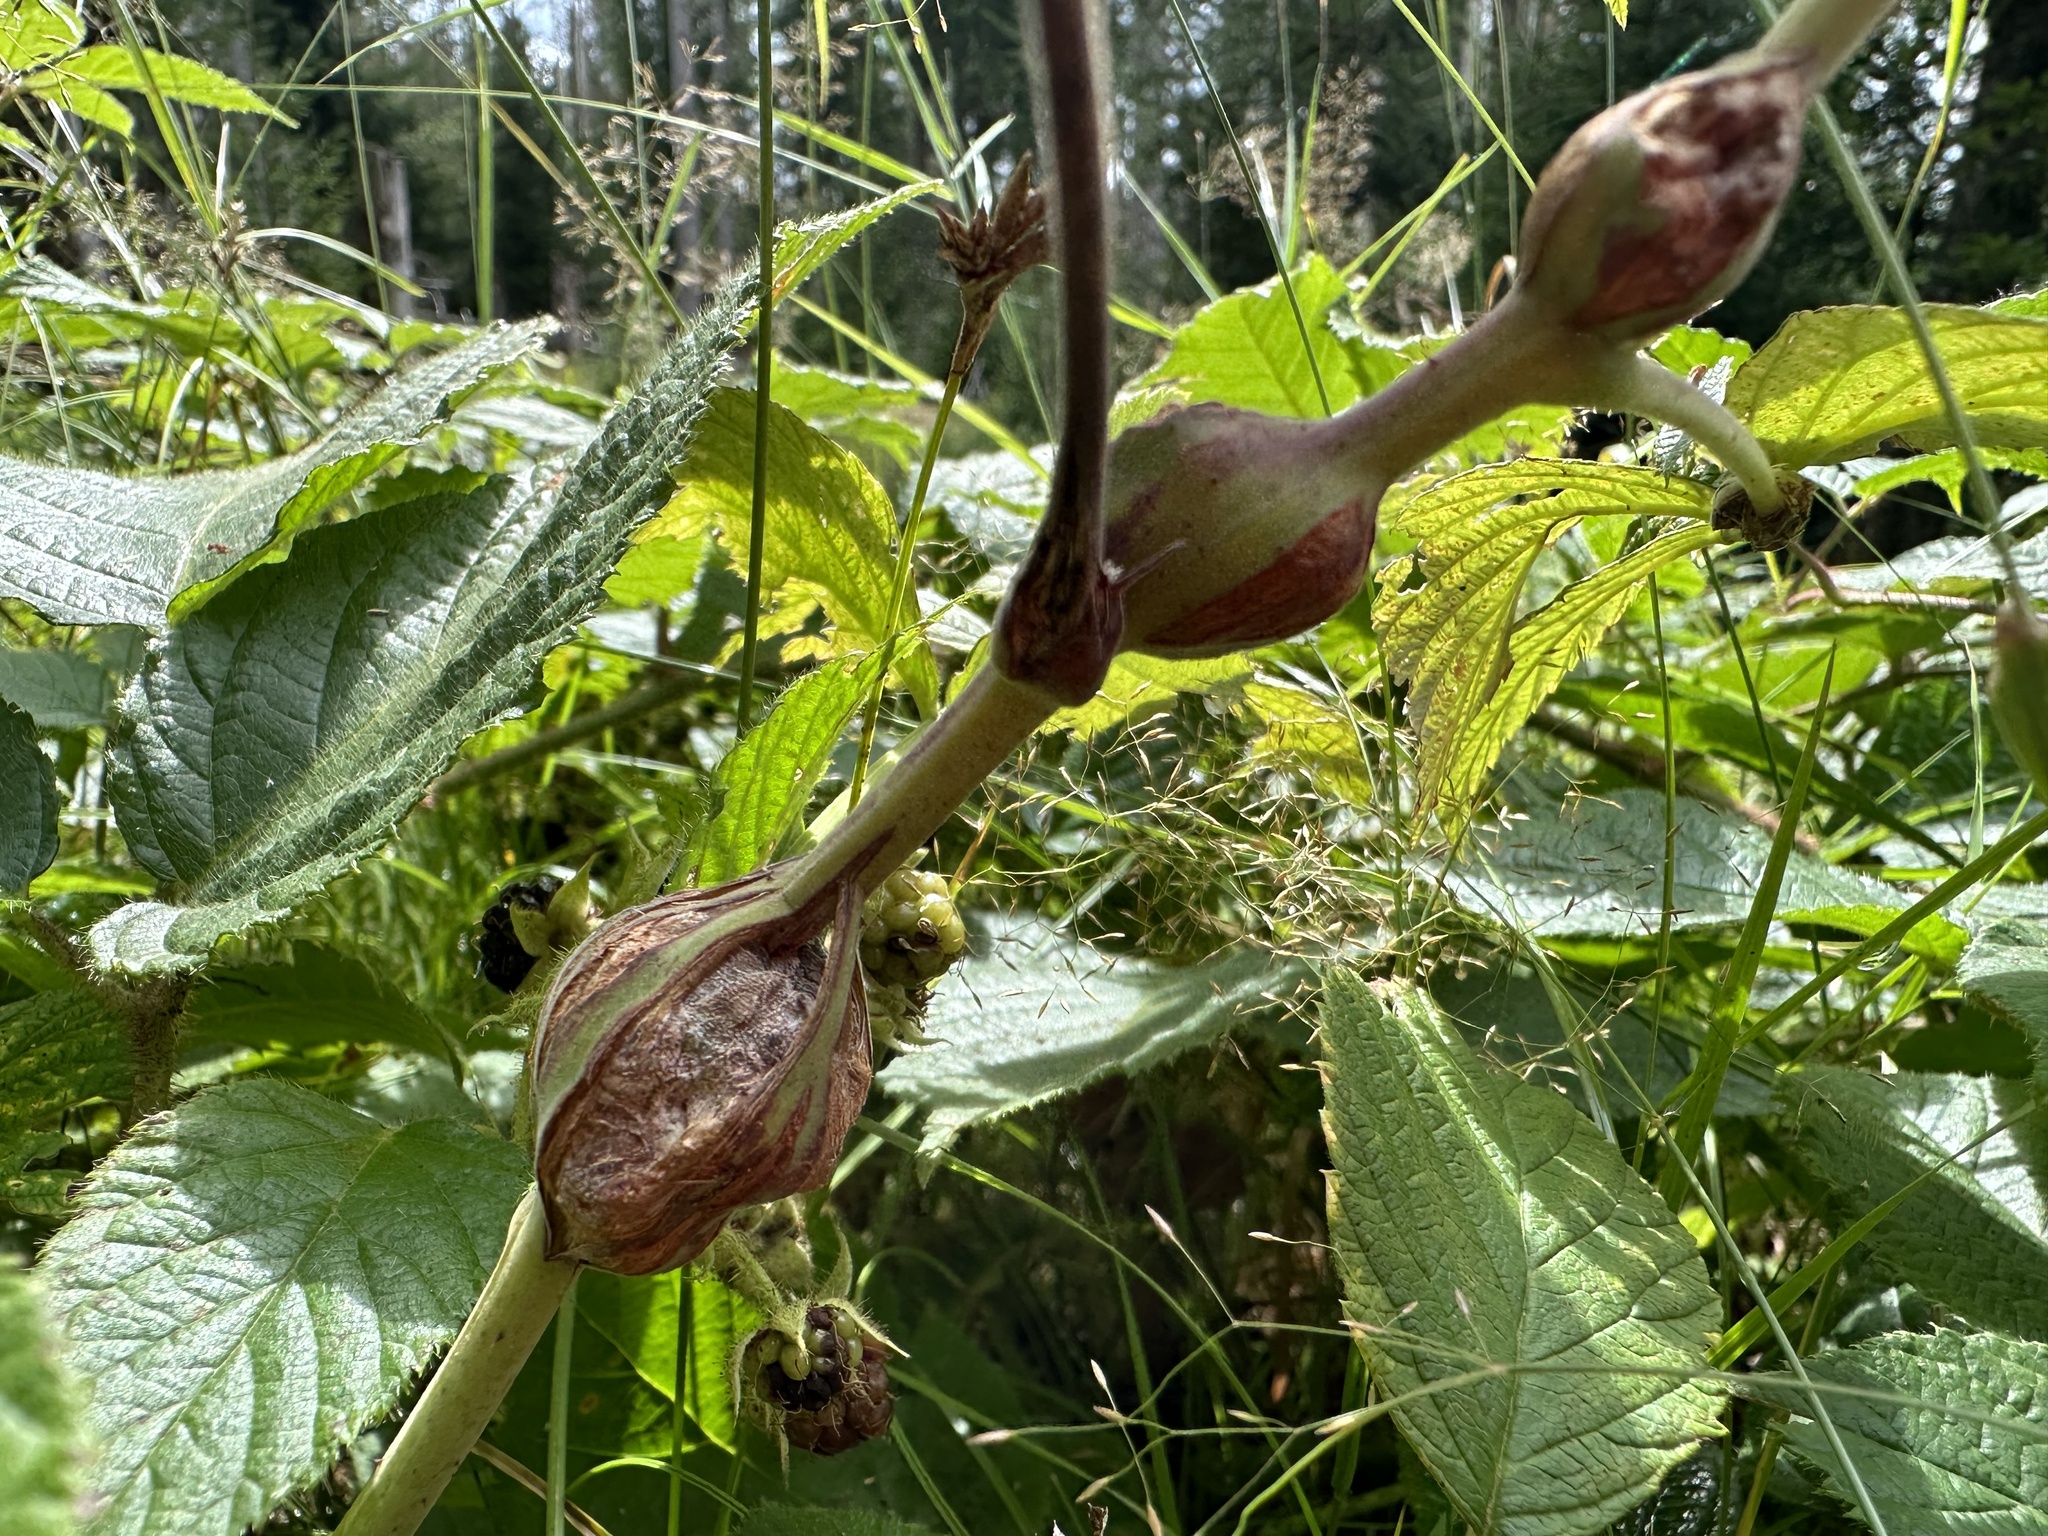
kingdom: Animalia
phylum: Arthropoda
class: Insecta
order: Diptera
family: Cecidomyiidae
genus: Lasioptera
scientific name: Lasioptera rubi
